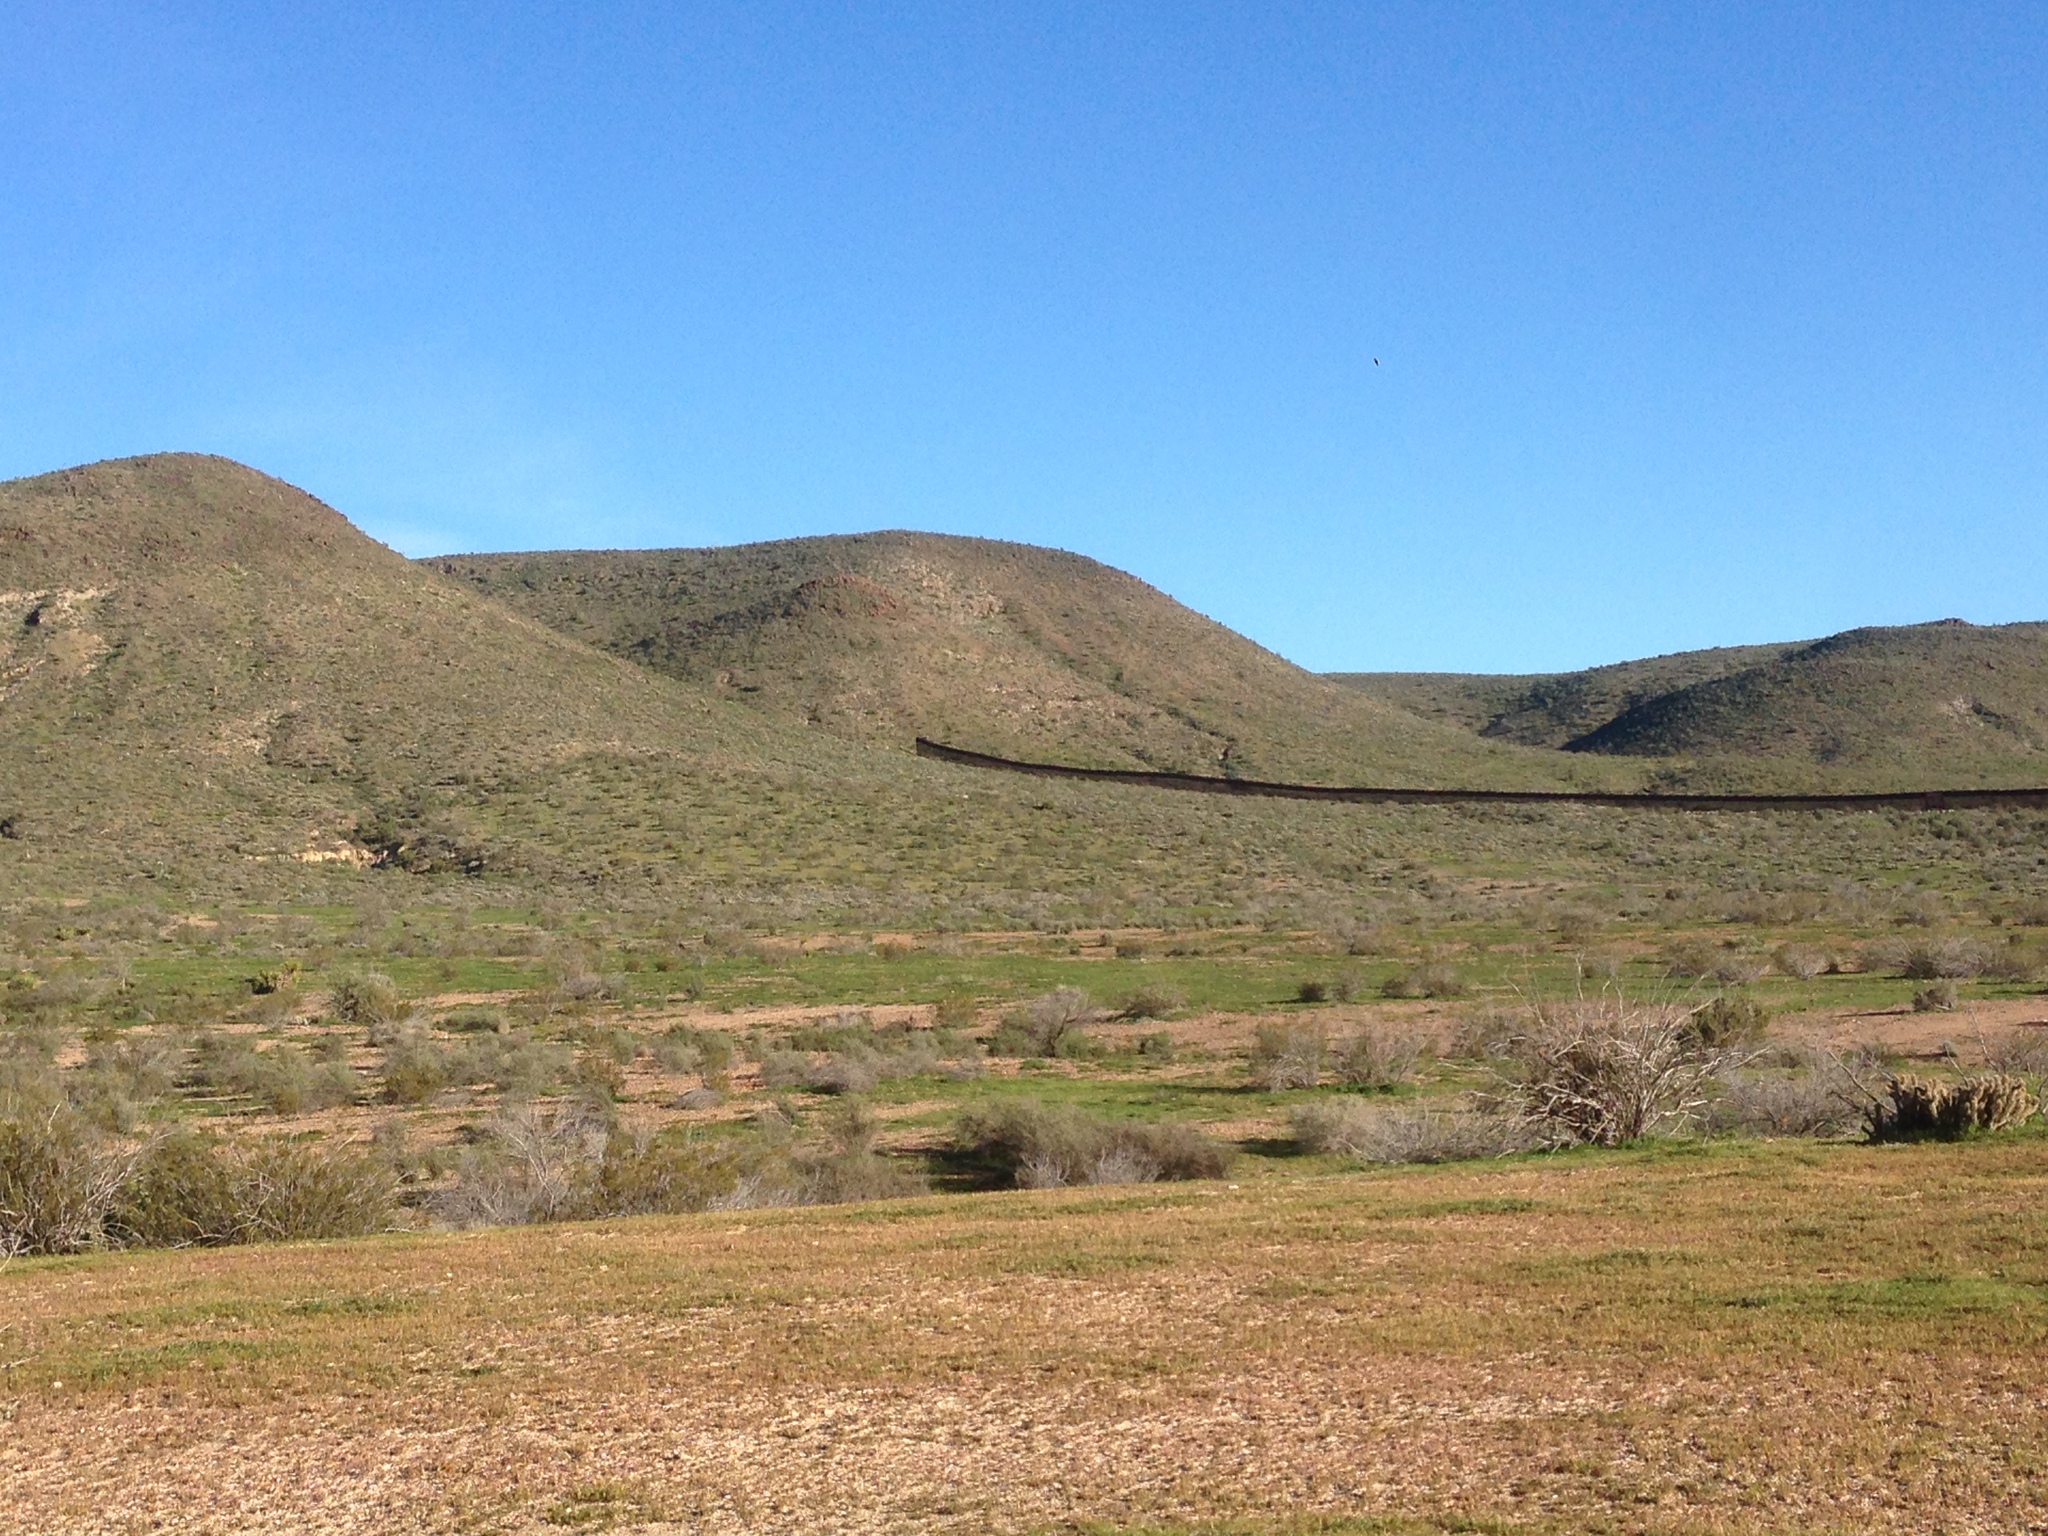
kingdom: Plantae
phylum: Tracheophyta
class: Magnoliopsida
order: Zygophyllales
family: Zygophyllaceae
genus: Larrea
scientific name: Larrea tridentata
